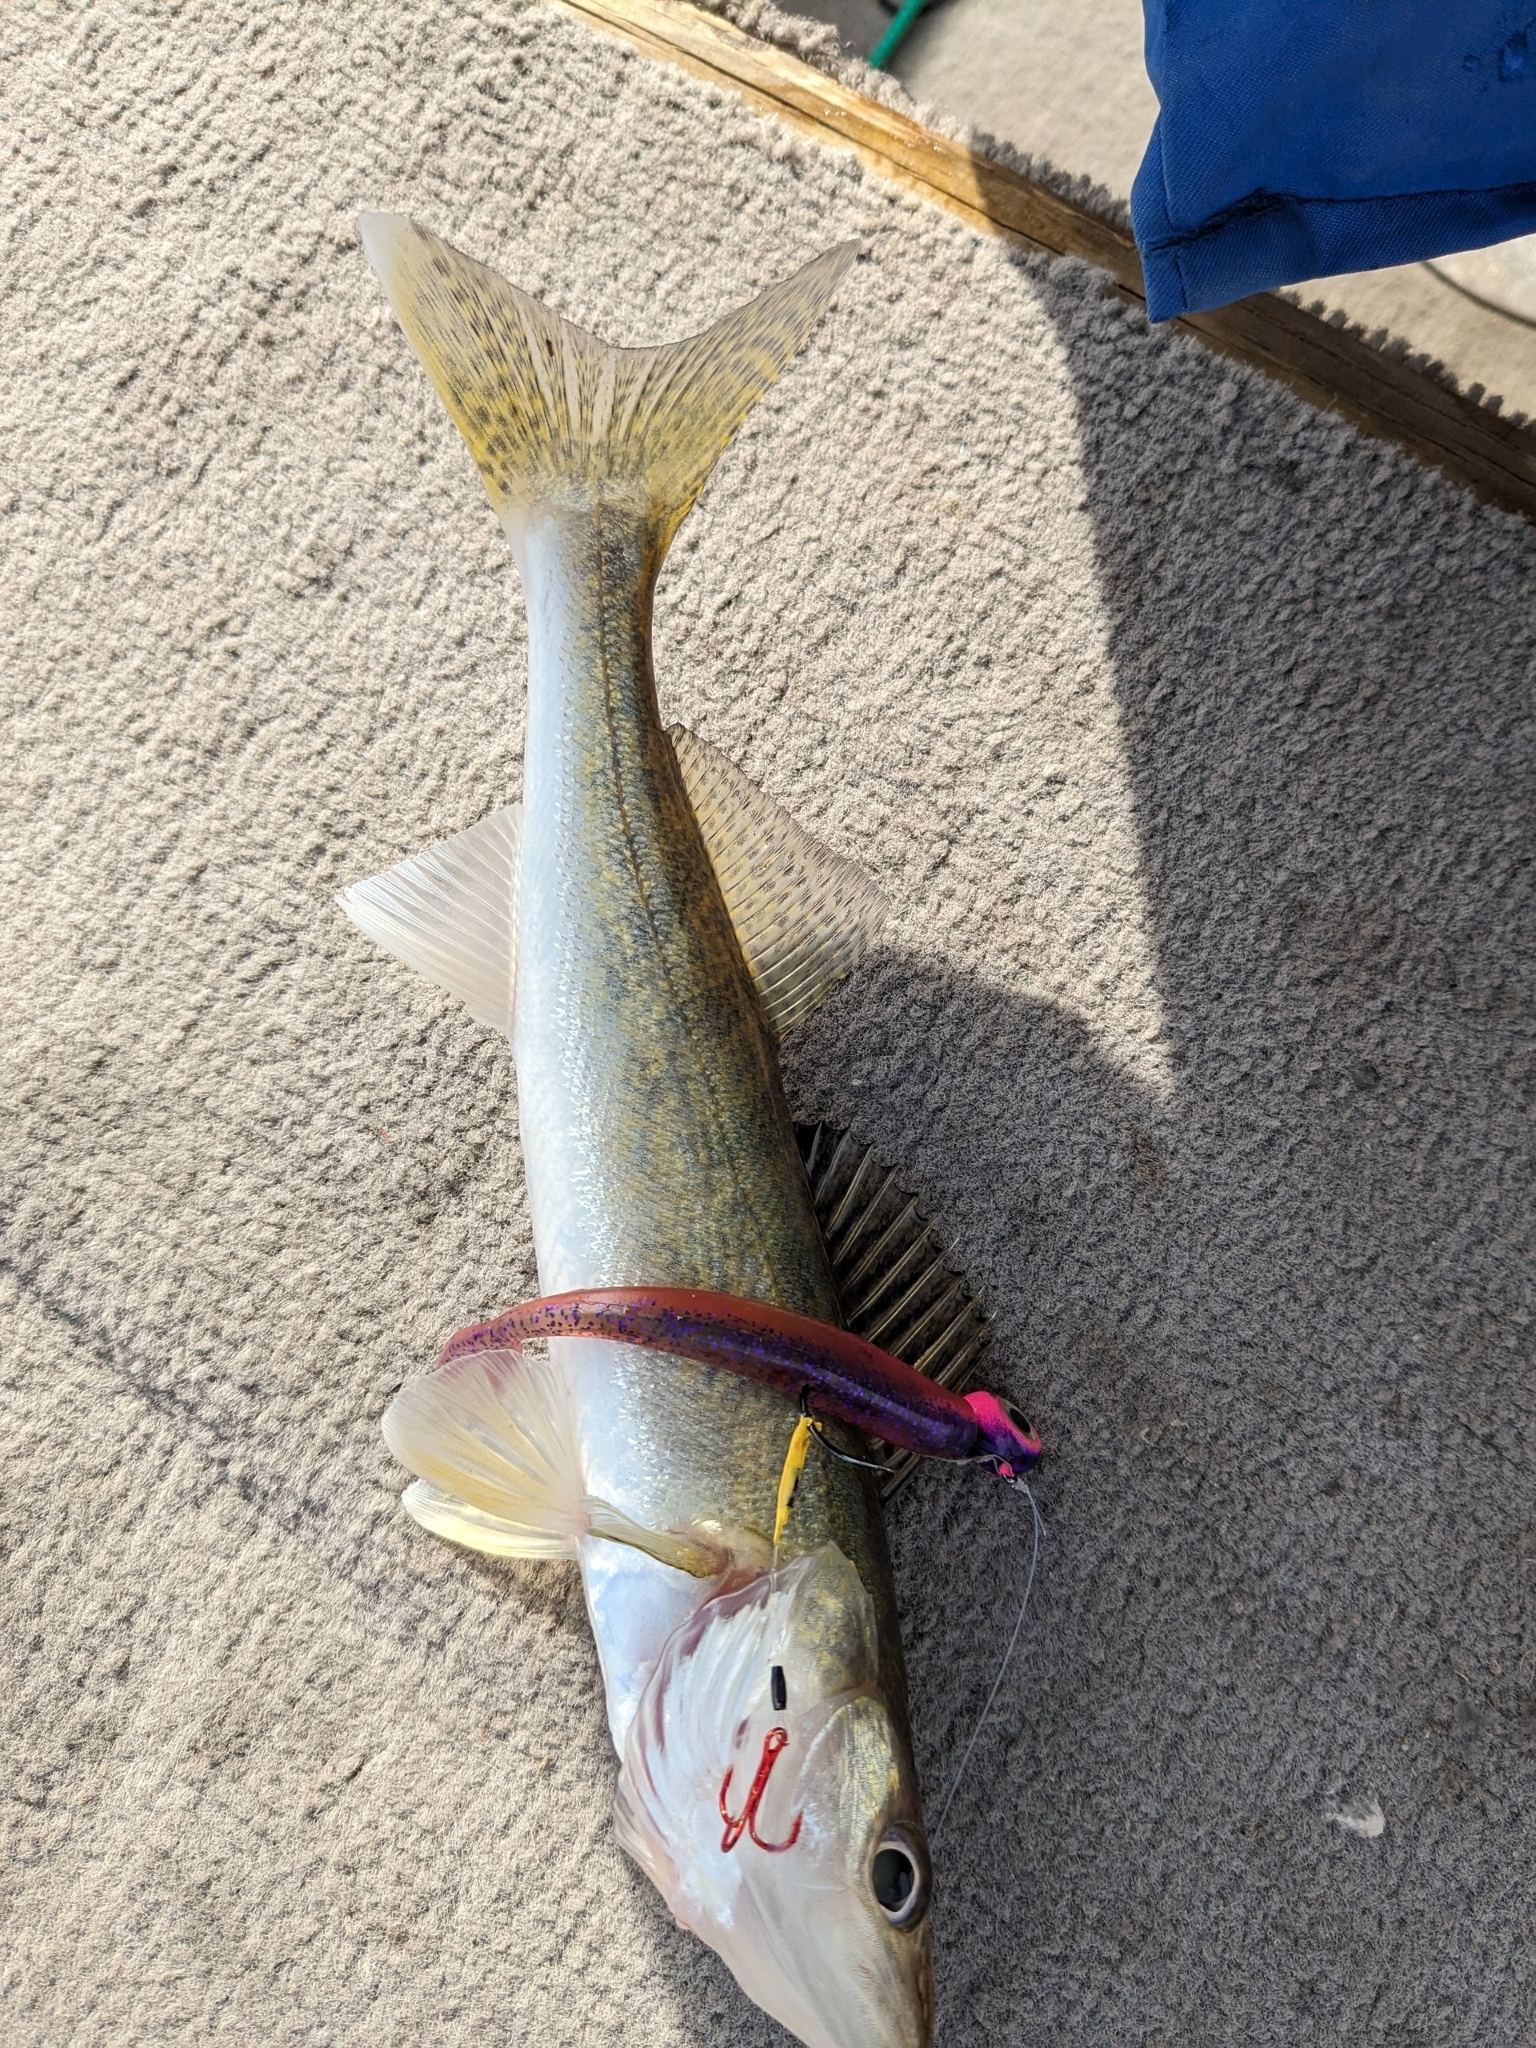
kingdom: Animalia
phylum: Chordata
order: Perciformes
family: Percidae
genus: Sander
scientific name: Sander vitreus
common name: Walleye
